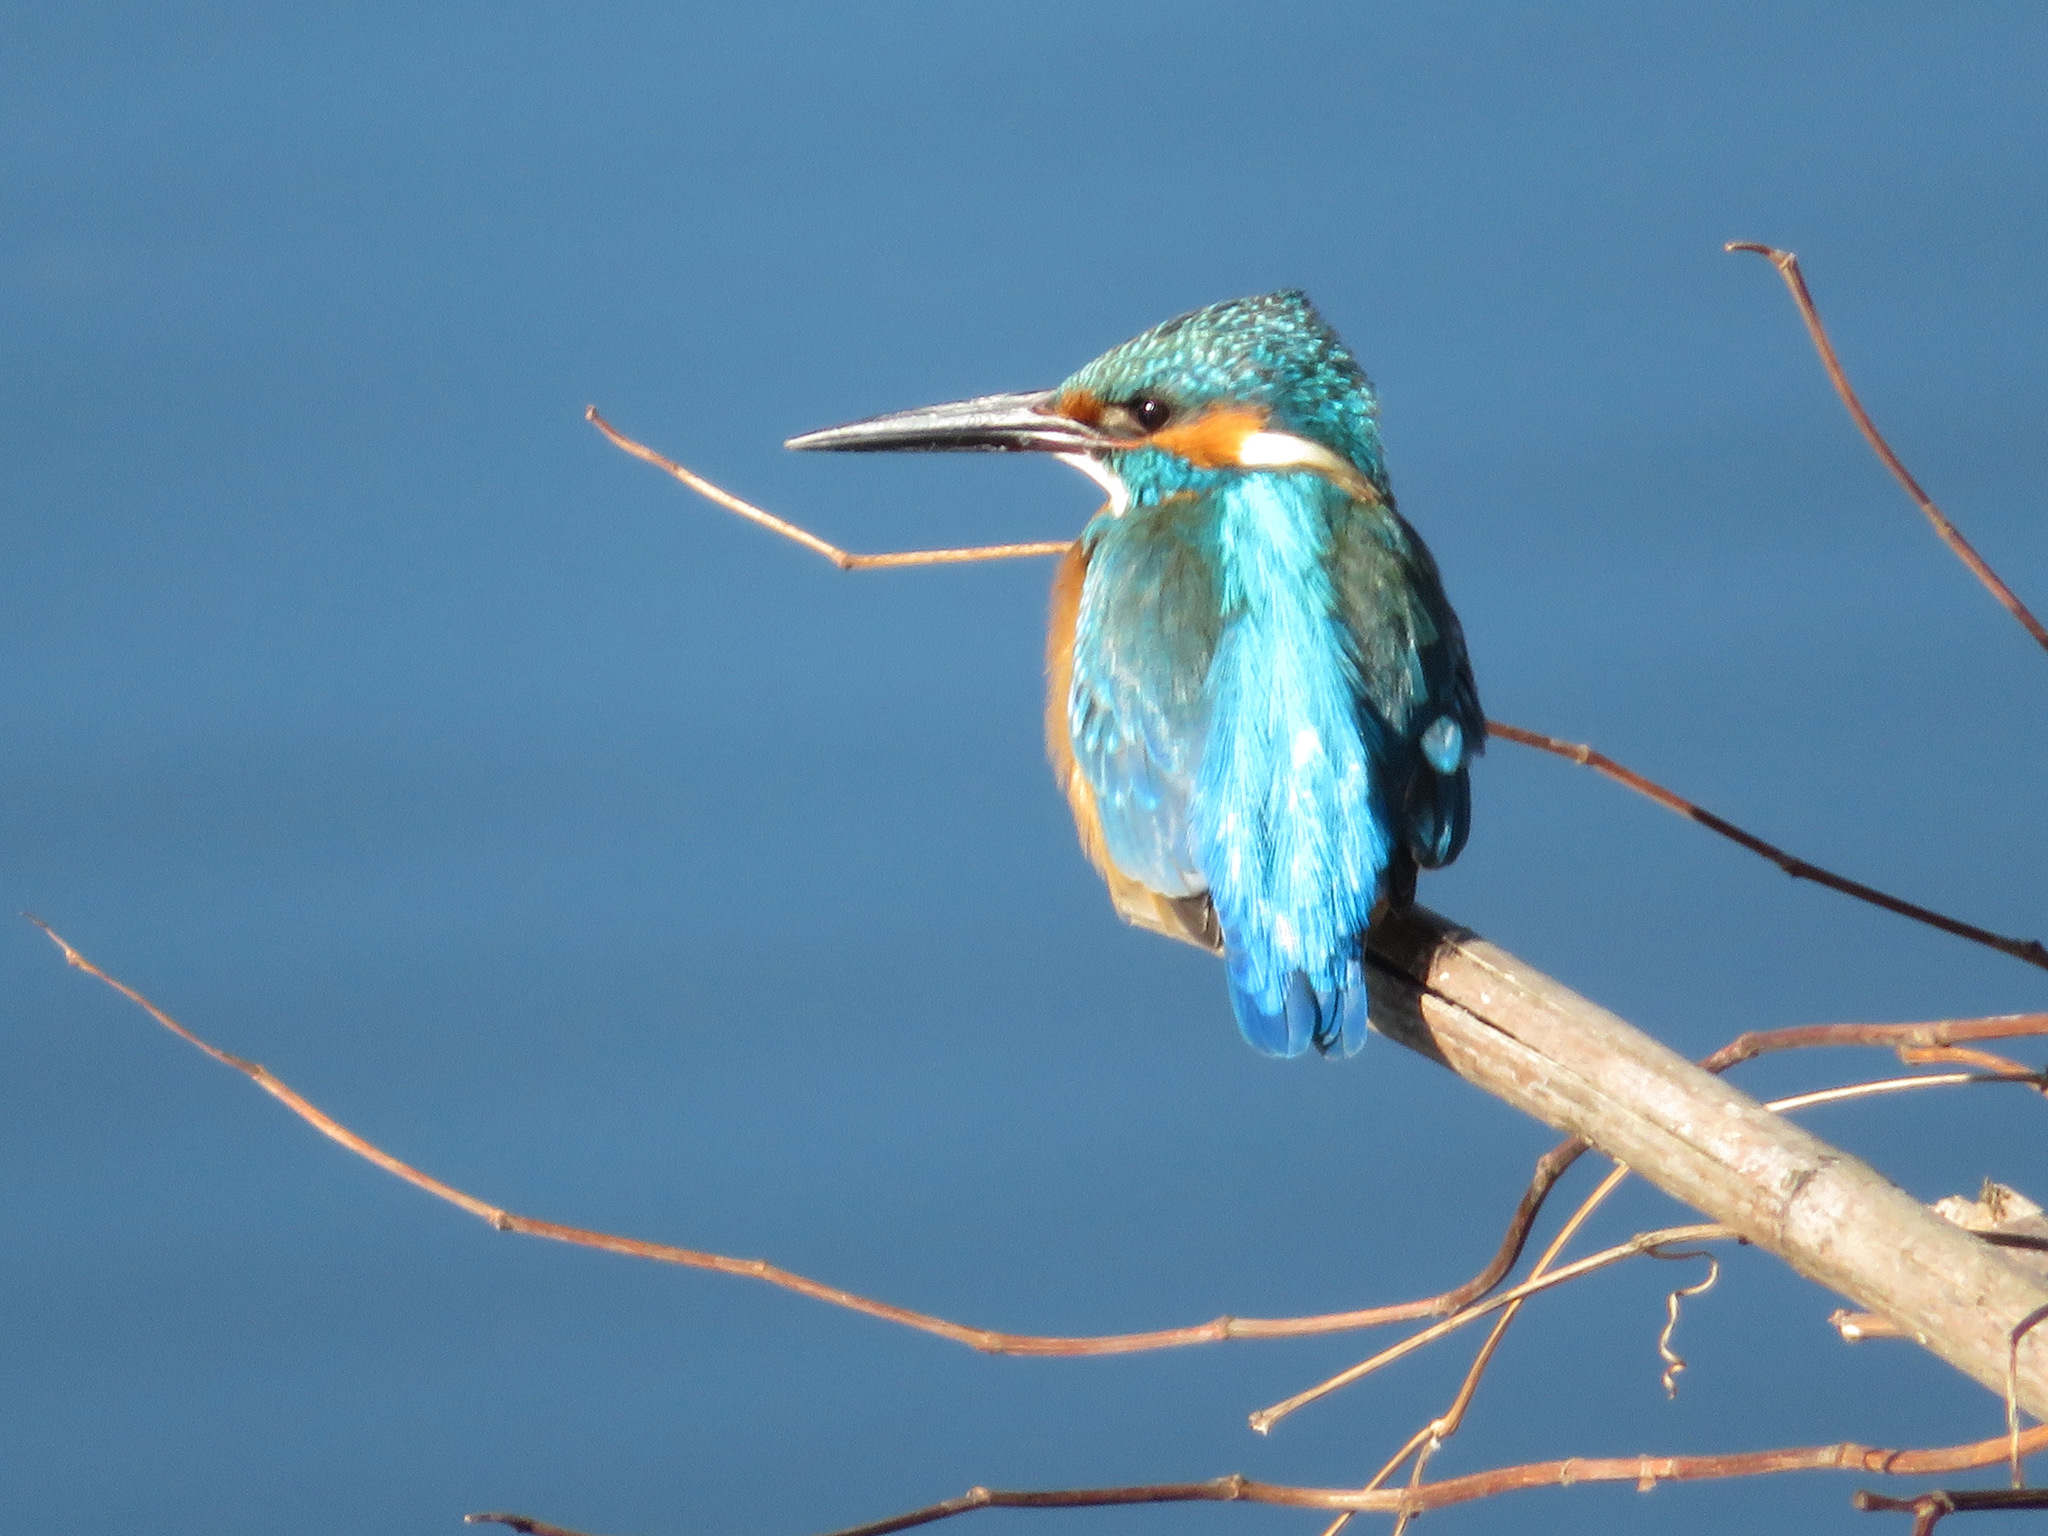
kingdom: Animalia
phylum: Chordata
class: Aves
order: Coraciiformes
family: Alcedinidae
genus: Alcedo
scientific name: Alcedo atthis
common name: Common kingfisher
